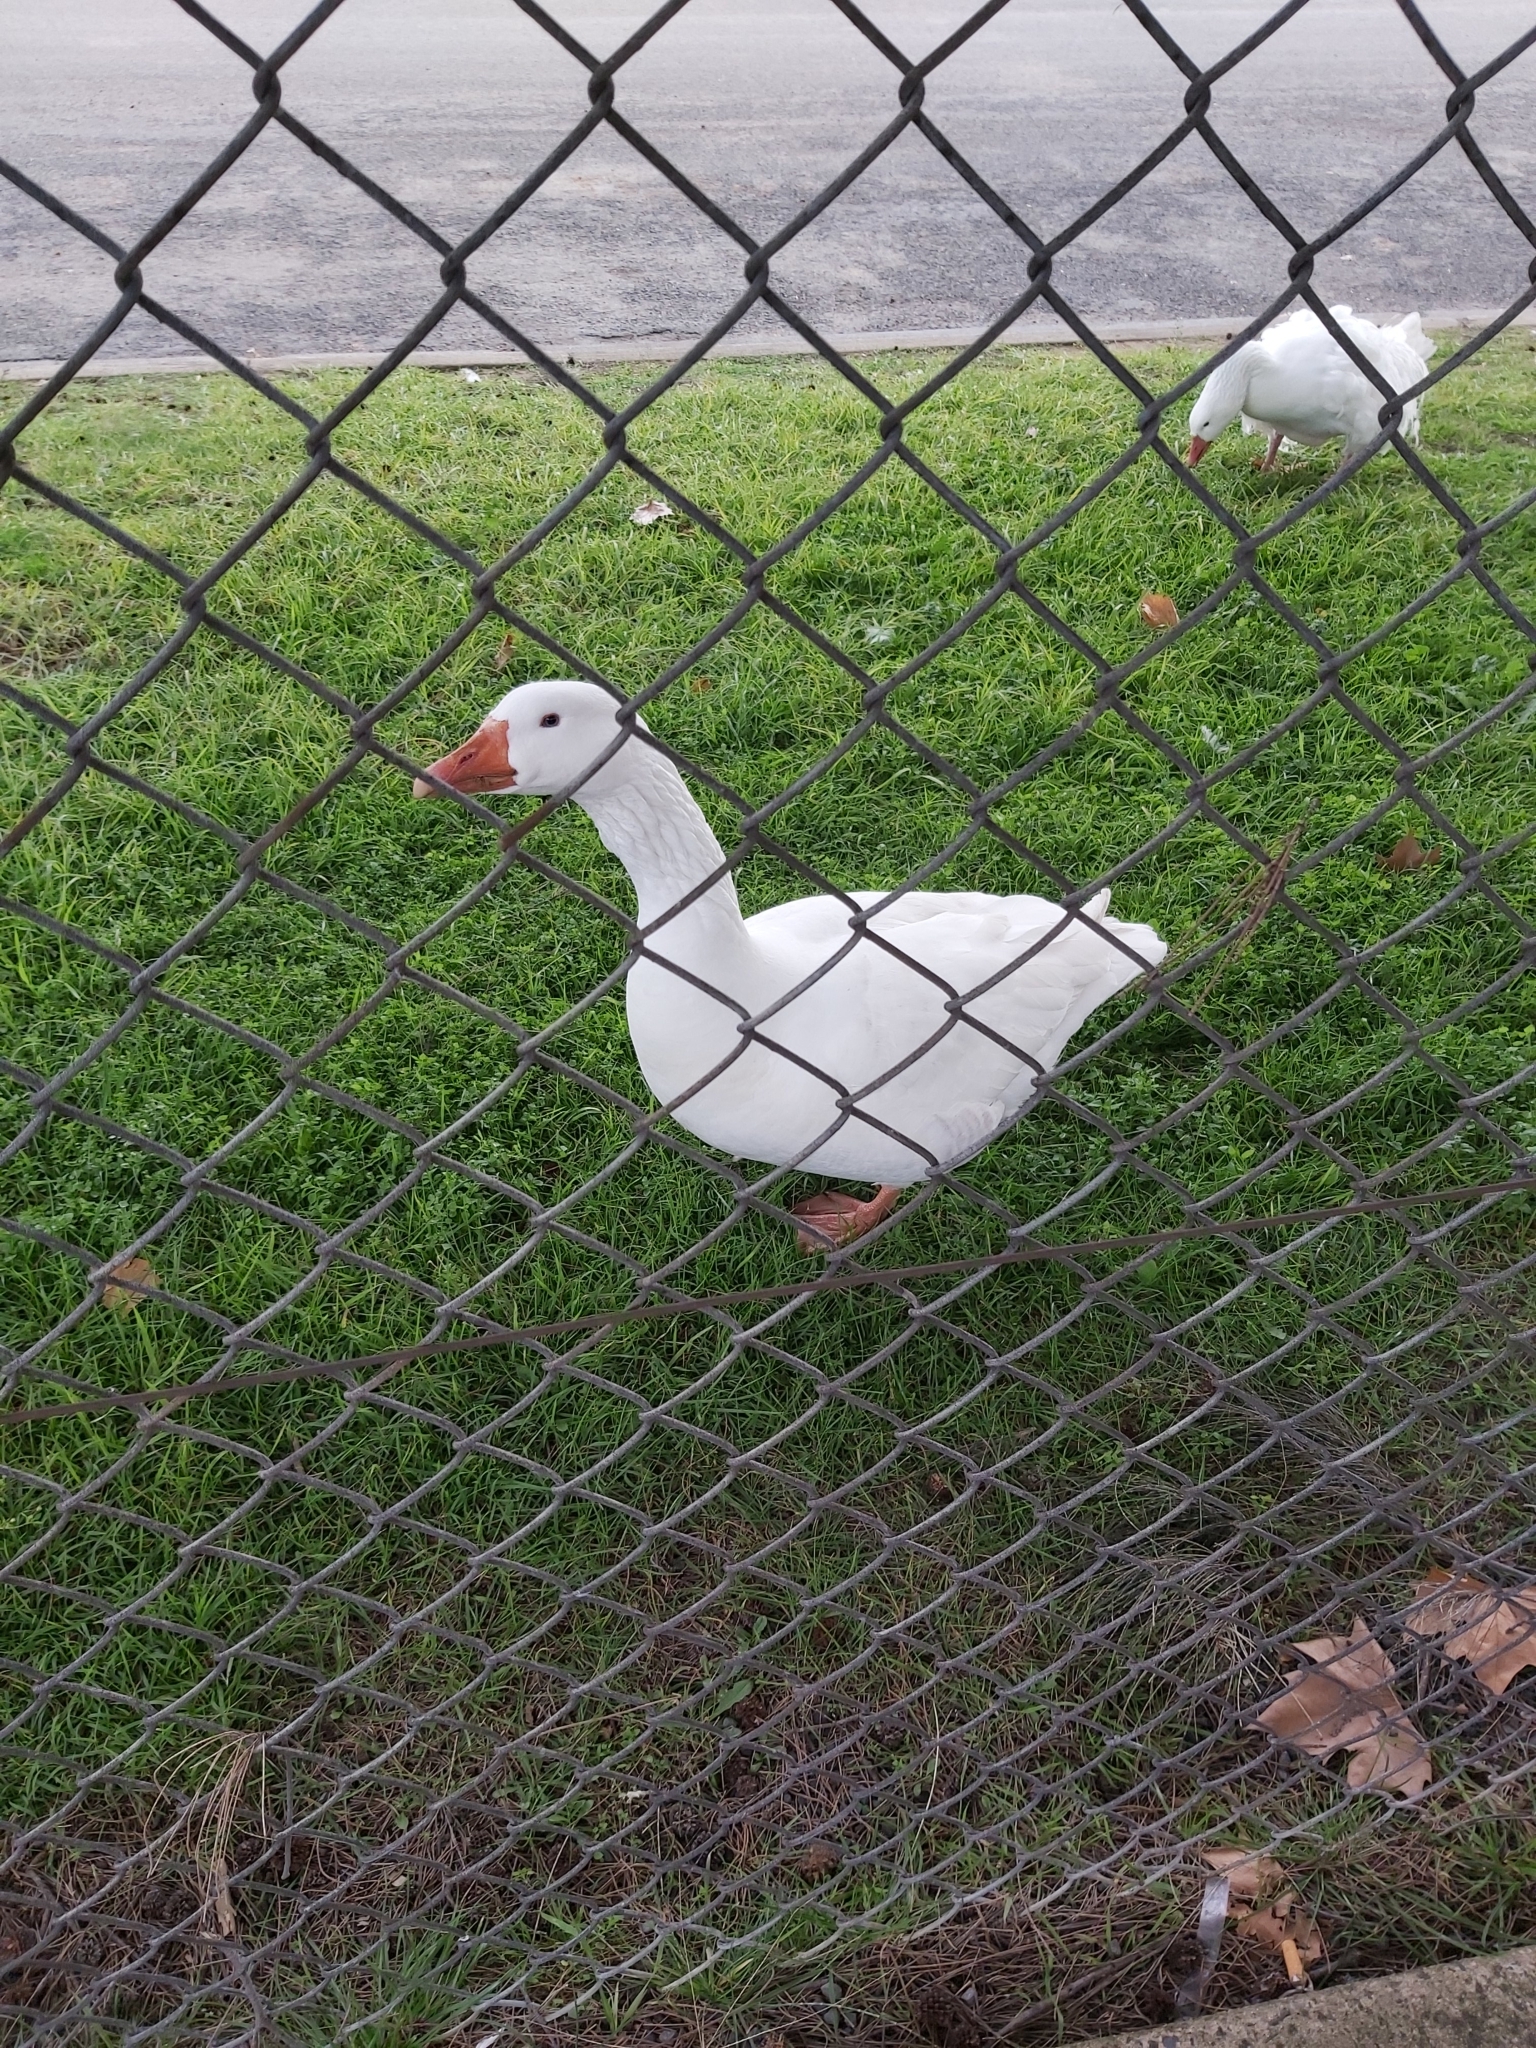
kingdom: Animalia
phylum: Chordata
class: Aves
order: Anseriformes
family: Anatidae
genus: Anser
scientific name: Anser anser
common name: Greylag goose
